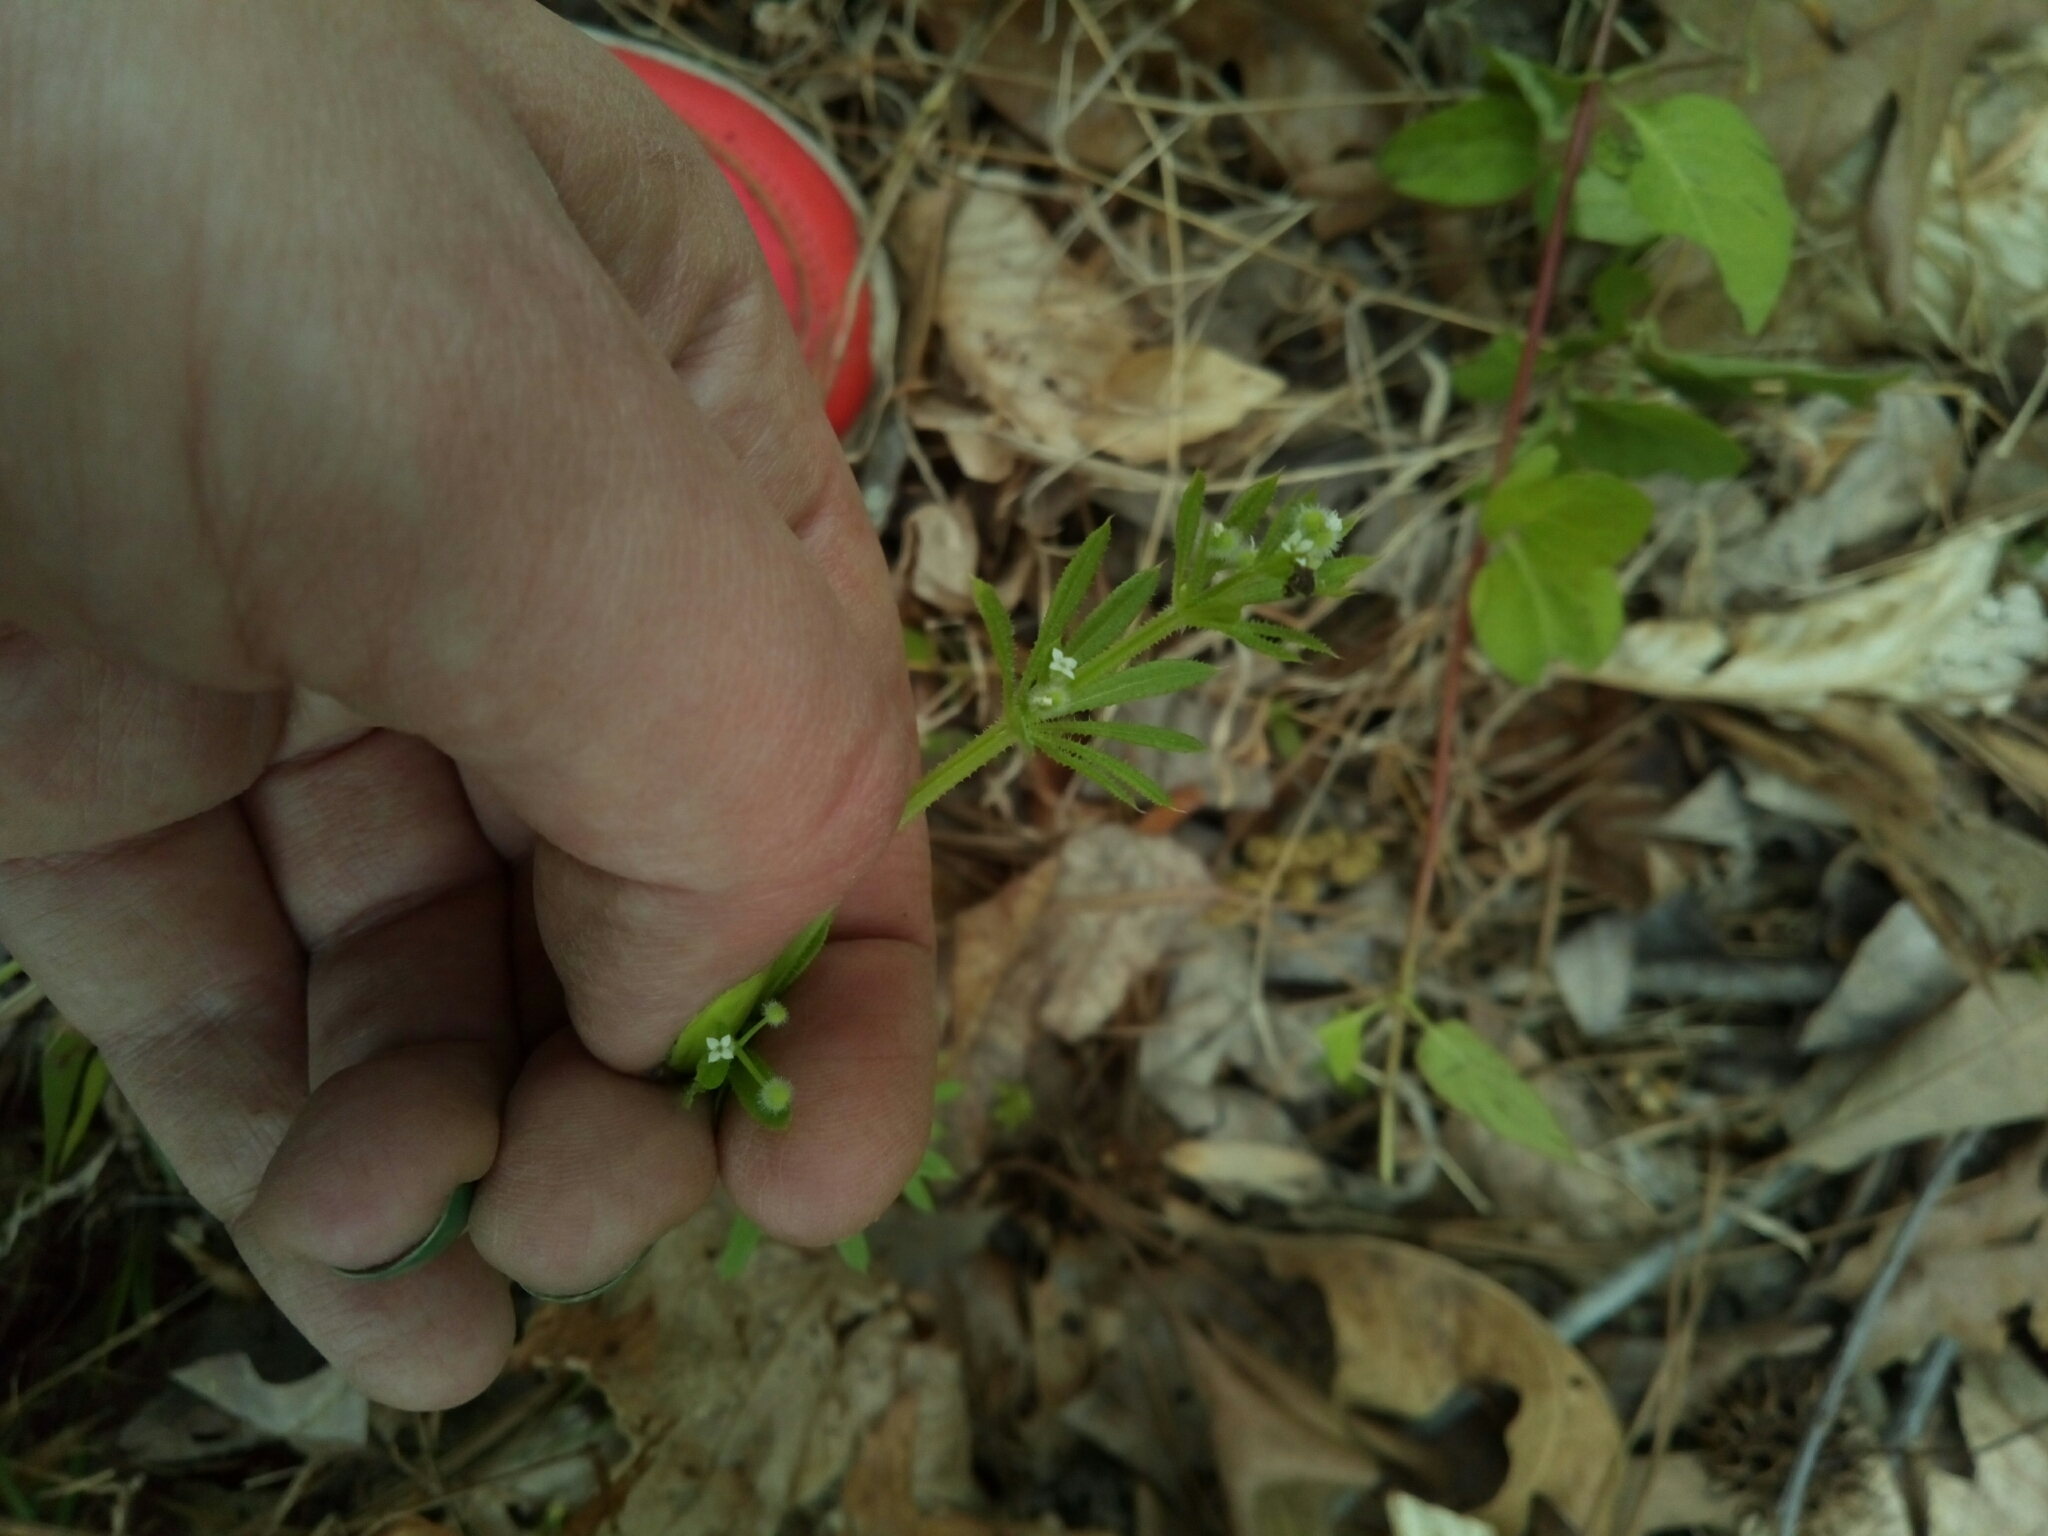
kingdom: Plantae
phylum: Tracheophyta
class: Magnoliopsida
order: Gentianales
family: Rubiaceae
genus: Galium
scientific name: Galium aparine
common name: Cleavers
